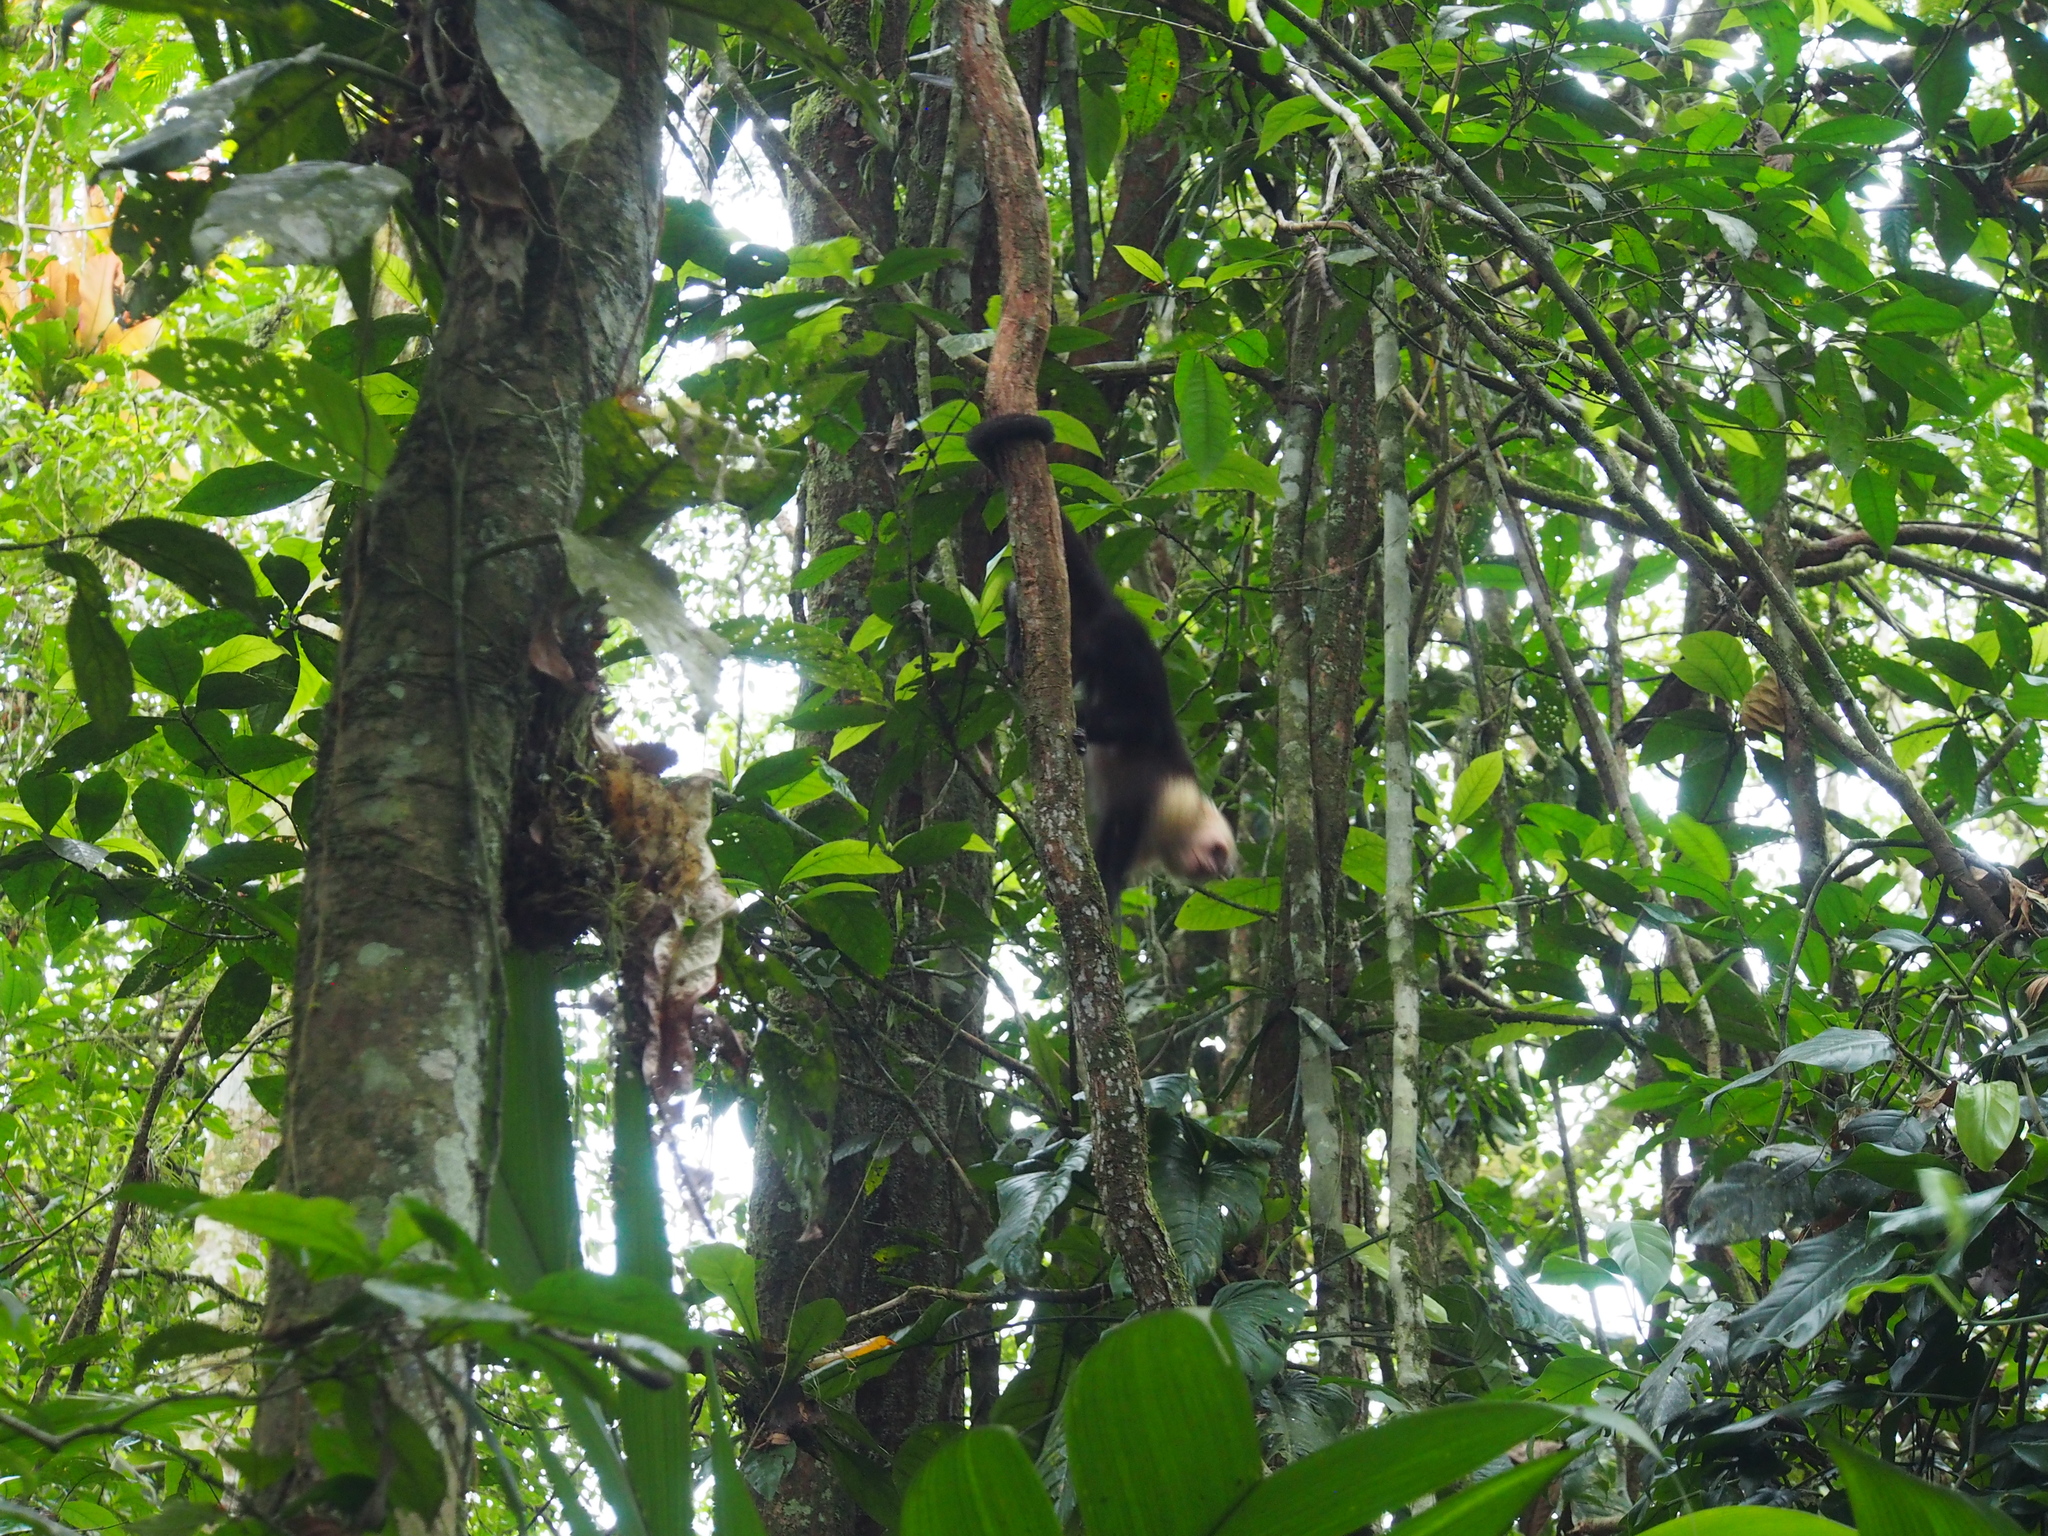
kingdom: Animalia
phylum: Chordata
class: Mammalia
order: Primates
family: Cebidae
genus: Cebus
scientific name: Cebus imitator
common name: Panamanian white-faced capuchin
